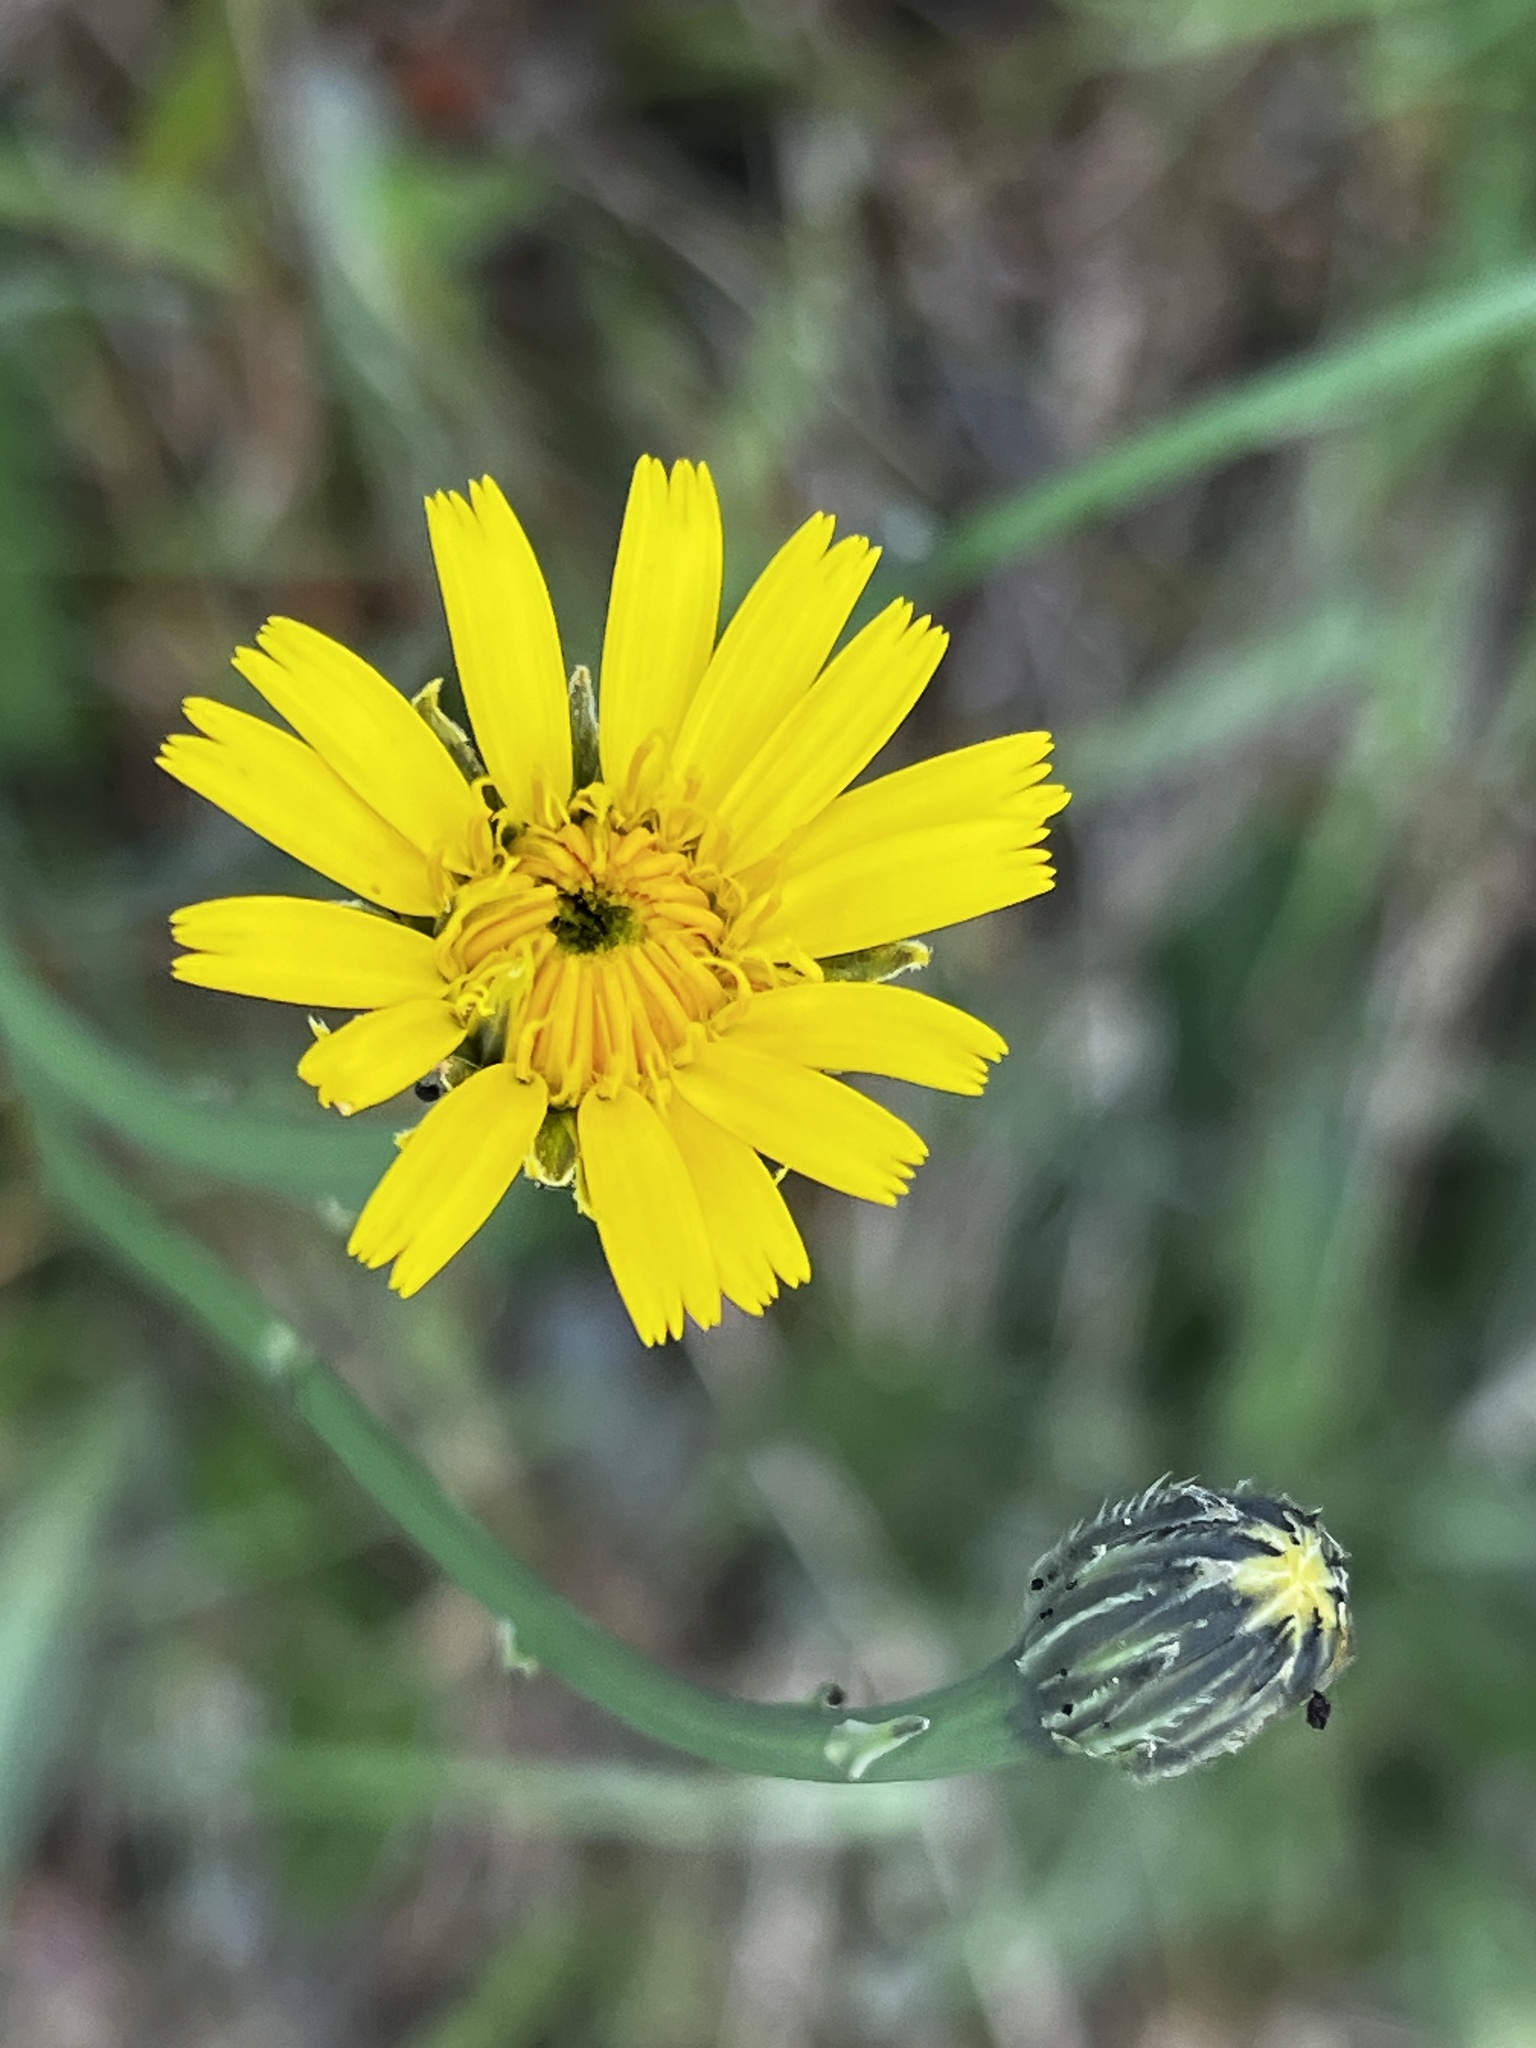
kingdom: Plantae
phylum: Tracheophyta
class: Magnoliopsida
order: Asterales
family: Asteraceae
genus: Hypochaeris
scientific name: Hypochaeris radicata
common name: Flatweed
